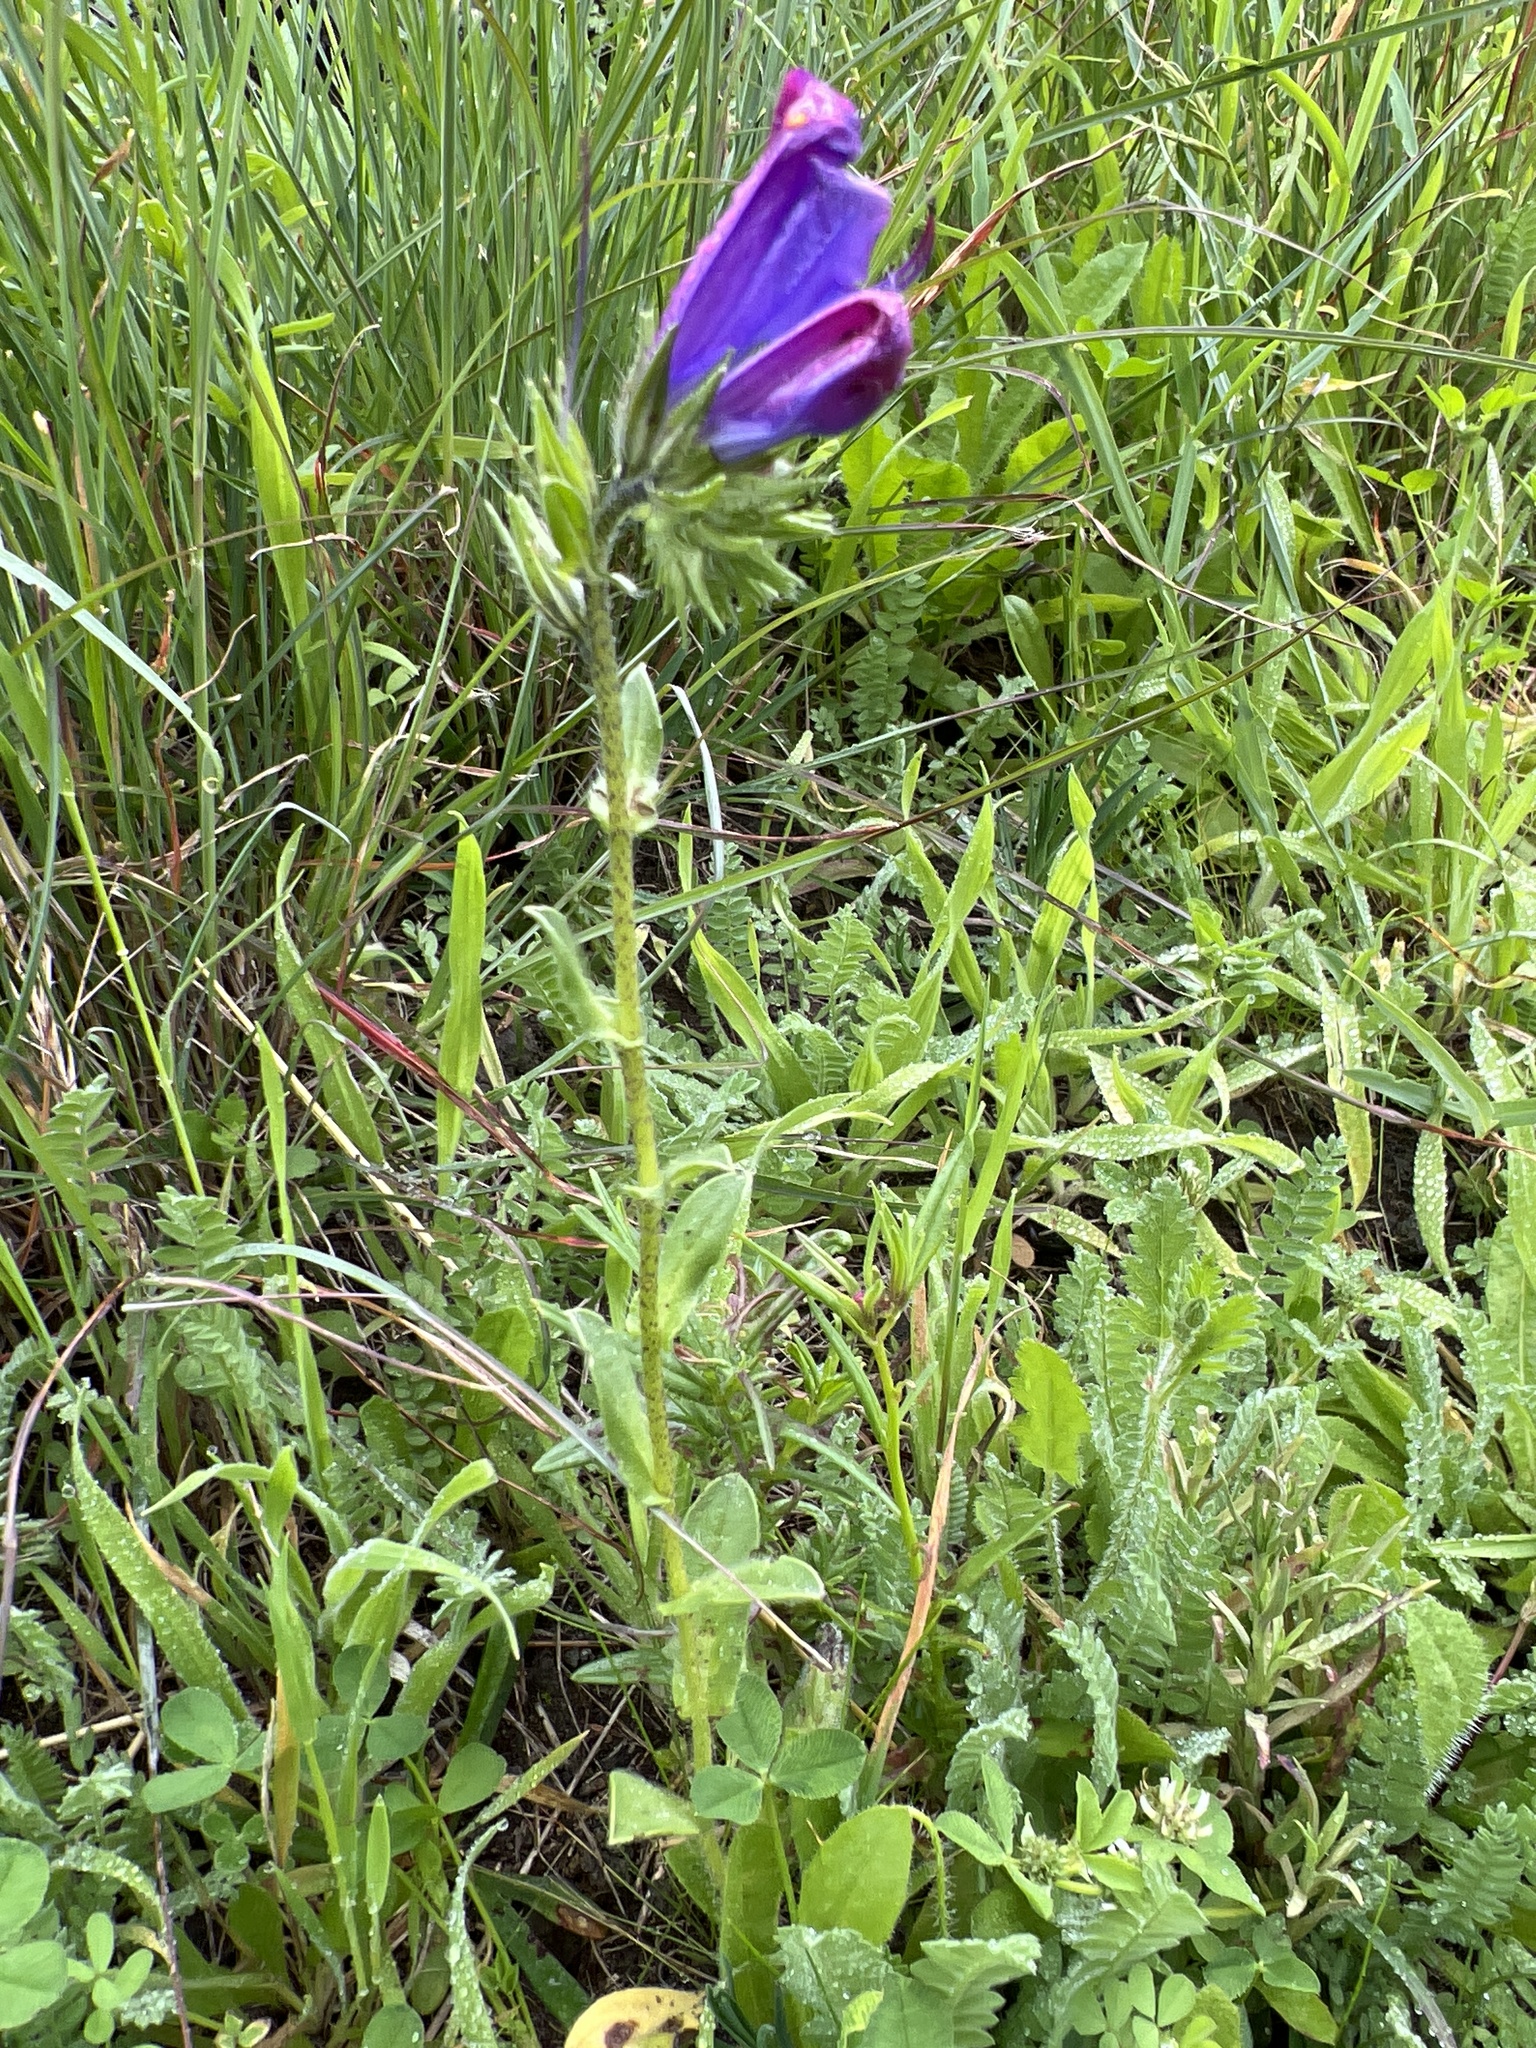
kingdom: Plantae
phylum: Tracheophyta
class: Magnoliopsida
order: Boraginales
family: Boraginaceae
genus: Echium
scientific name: Echium plantagineum
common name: Purple viper's-bugloss
